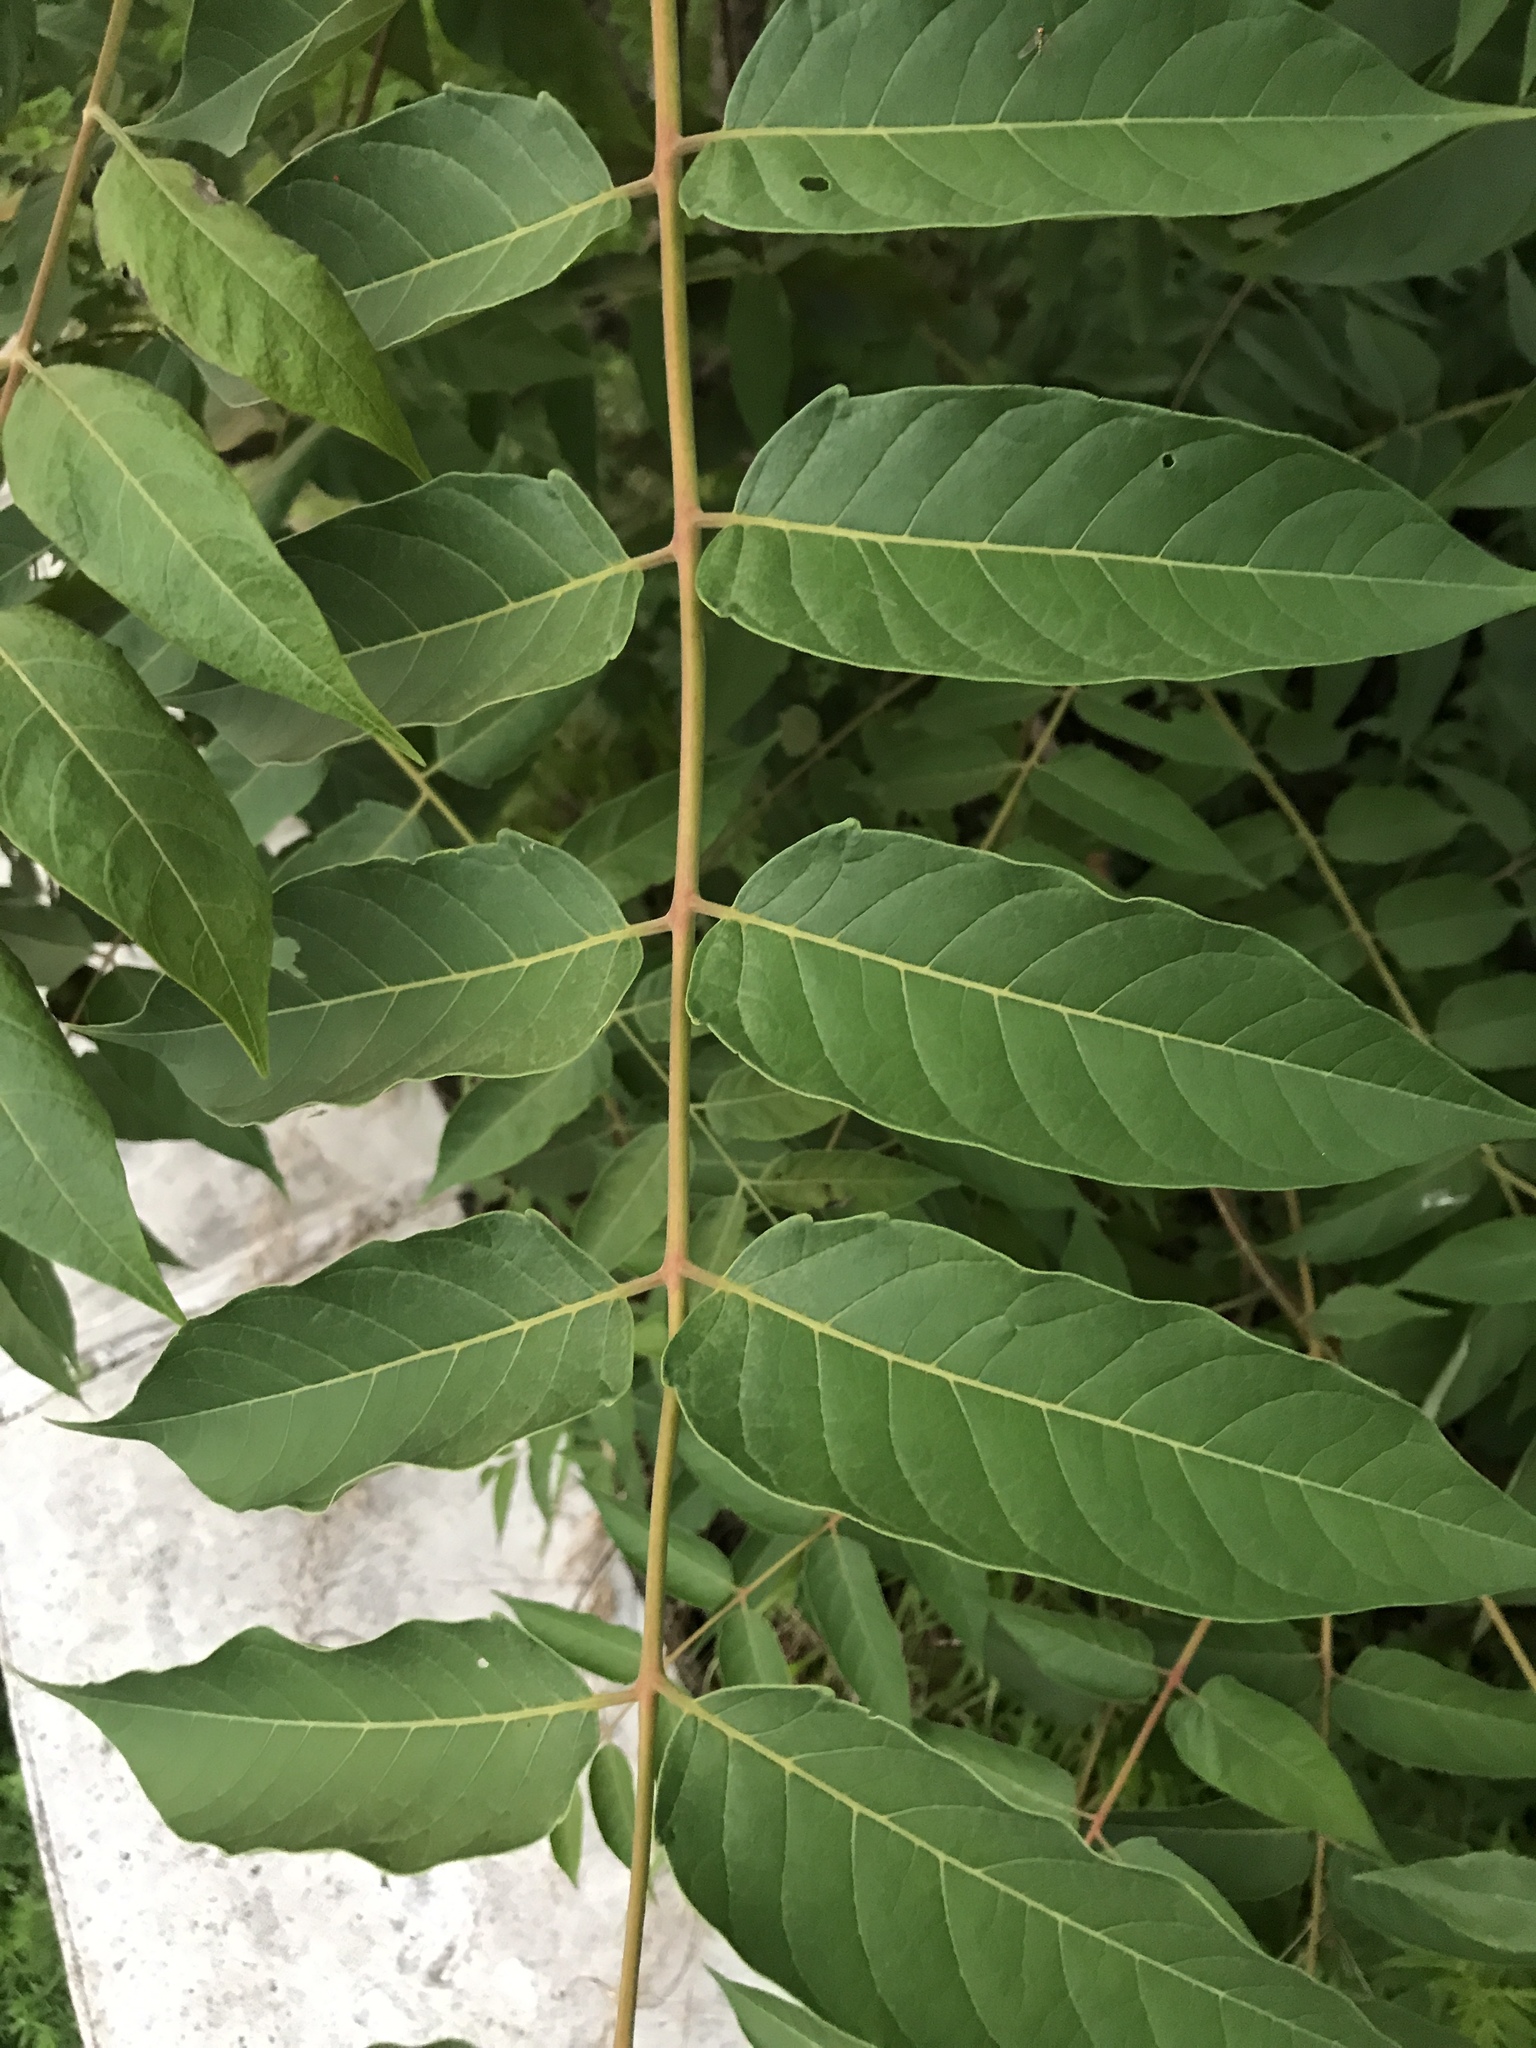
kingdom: Plantae
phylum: Tracheophyta
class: Magnoliopsida
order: Sapindales
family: Simaroubaceae
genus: Ailanthus
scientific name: Ailanthus altissima
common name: Tree-of-heaven
